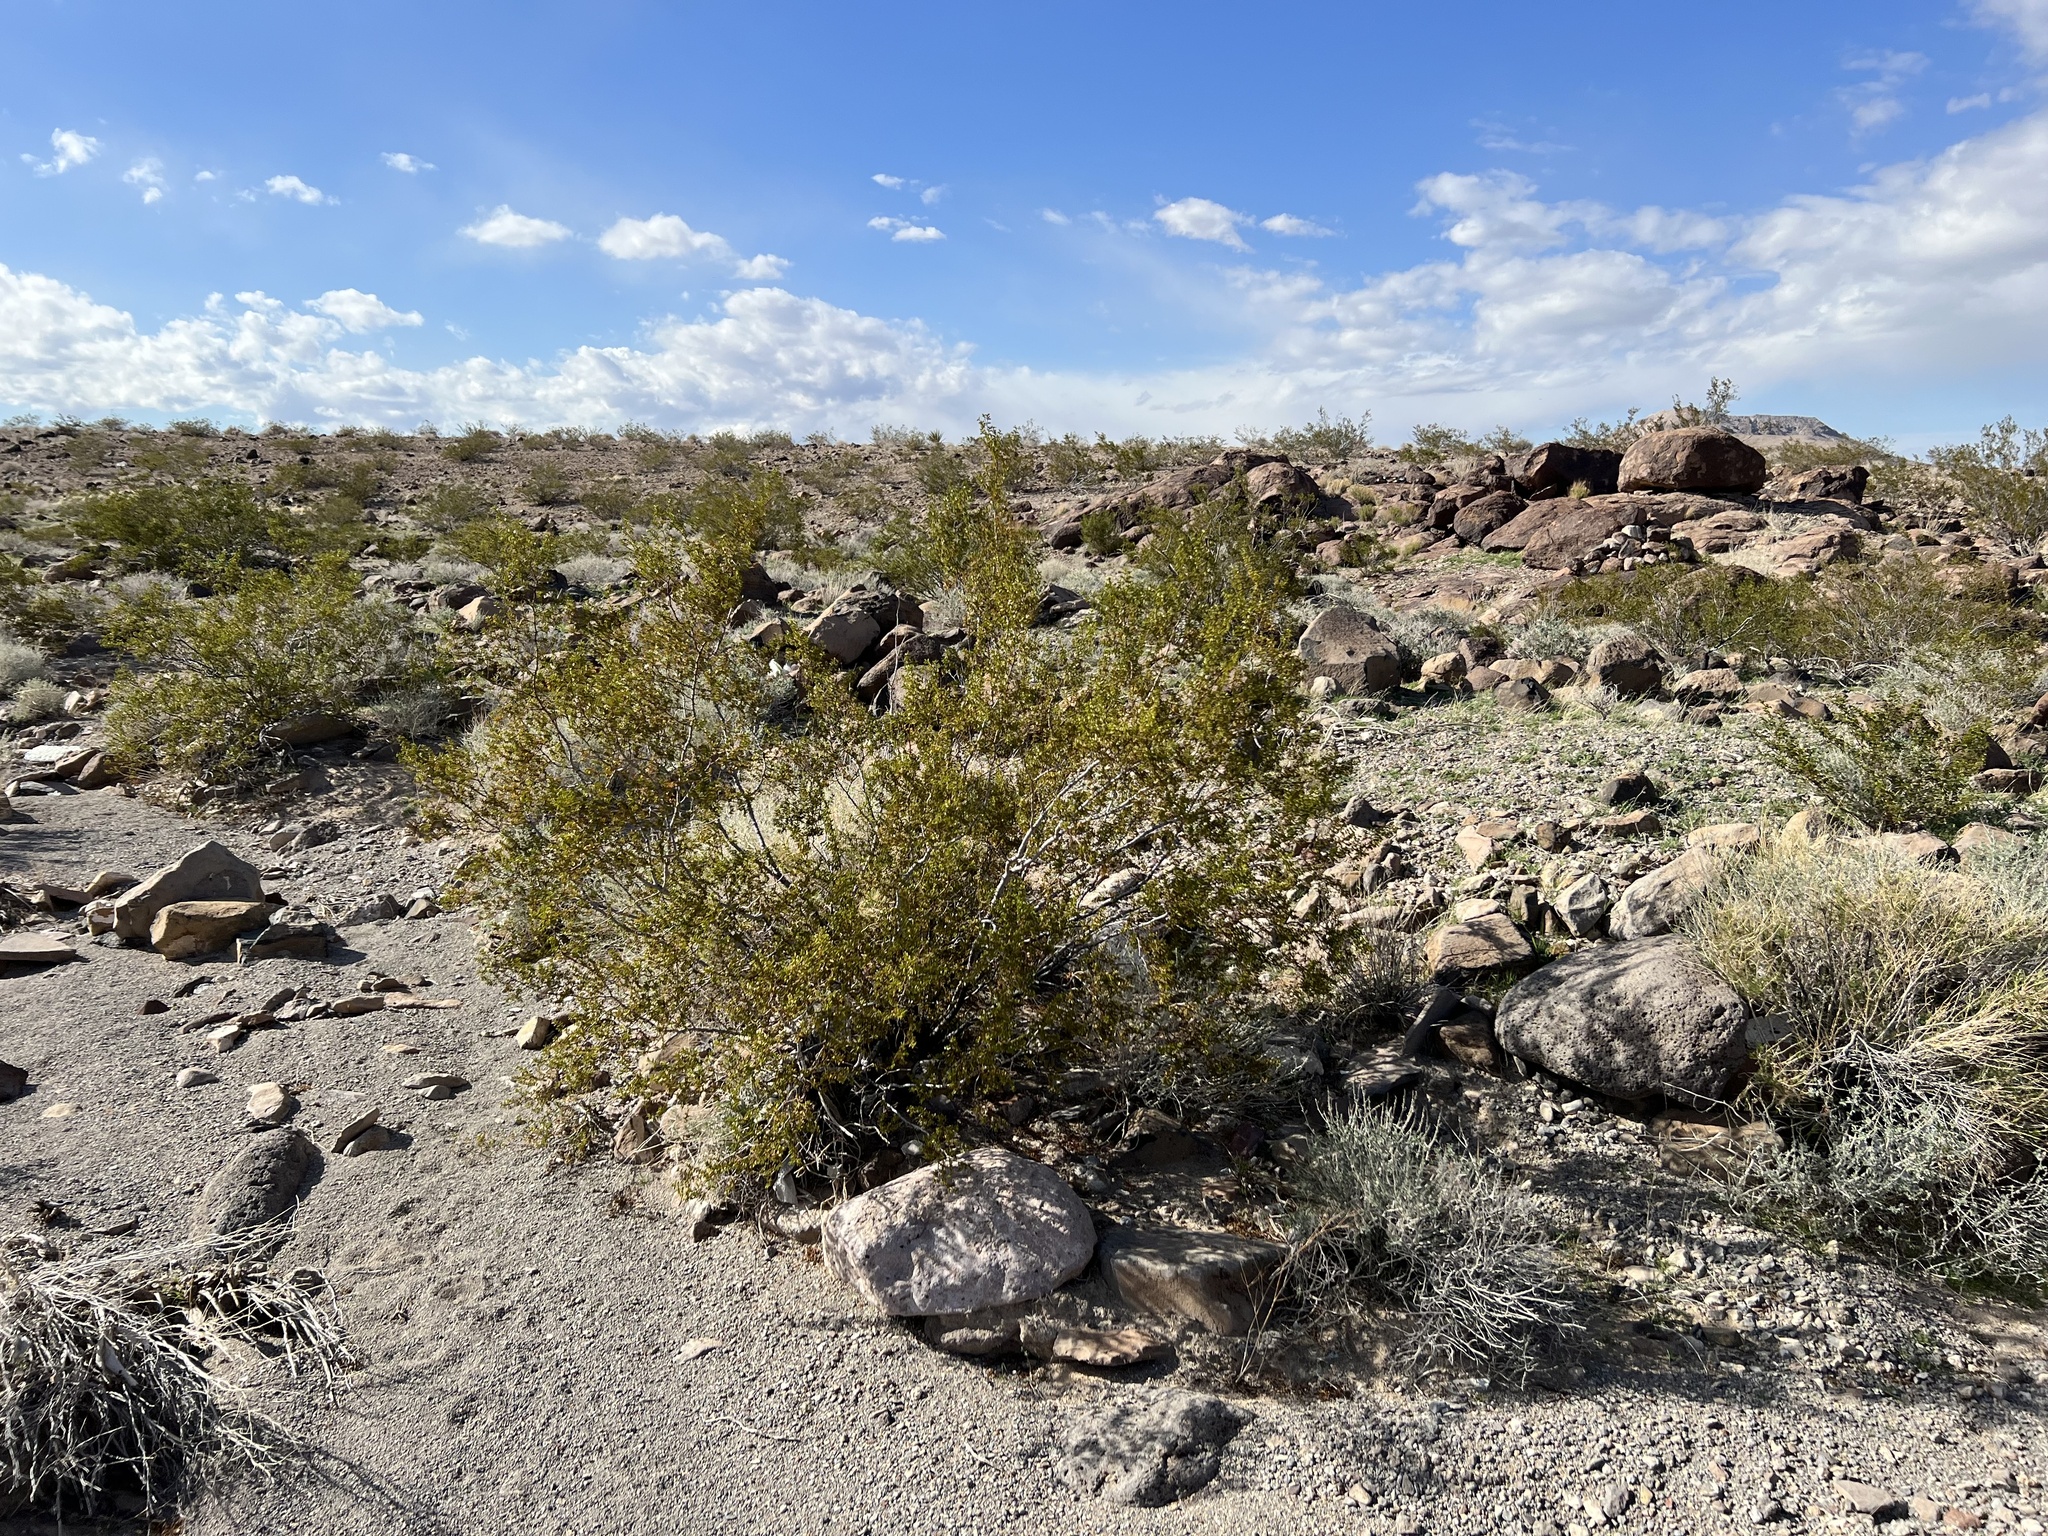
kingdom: Plantae
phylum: Tracheophyta
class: Magnoliopsida
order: Zygophyllales
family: Zygophyllaceae
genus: Larrea
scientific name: Larrea tridentata
